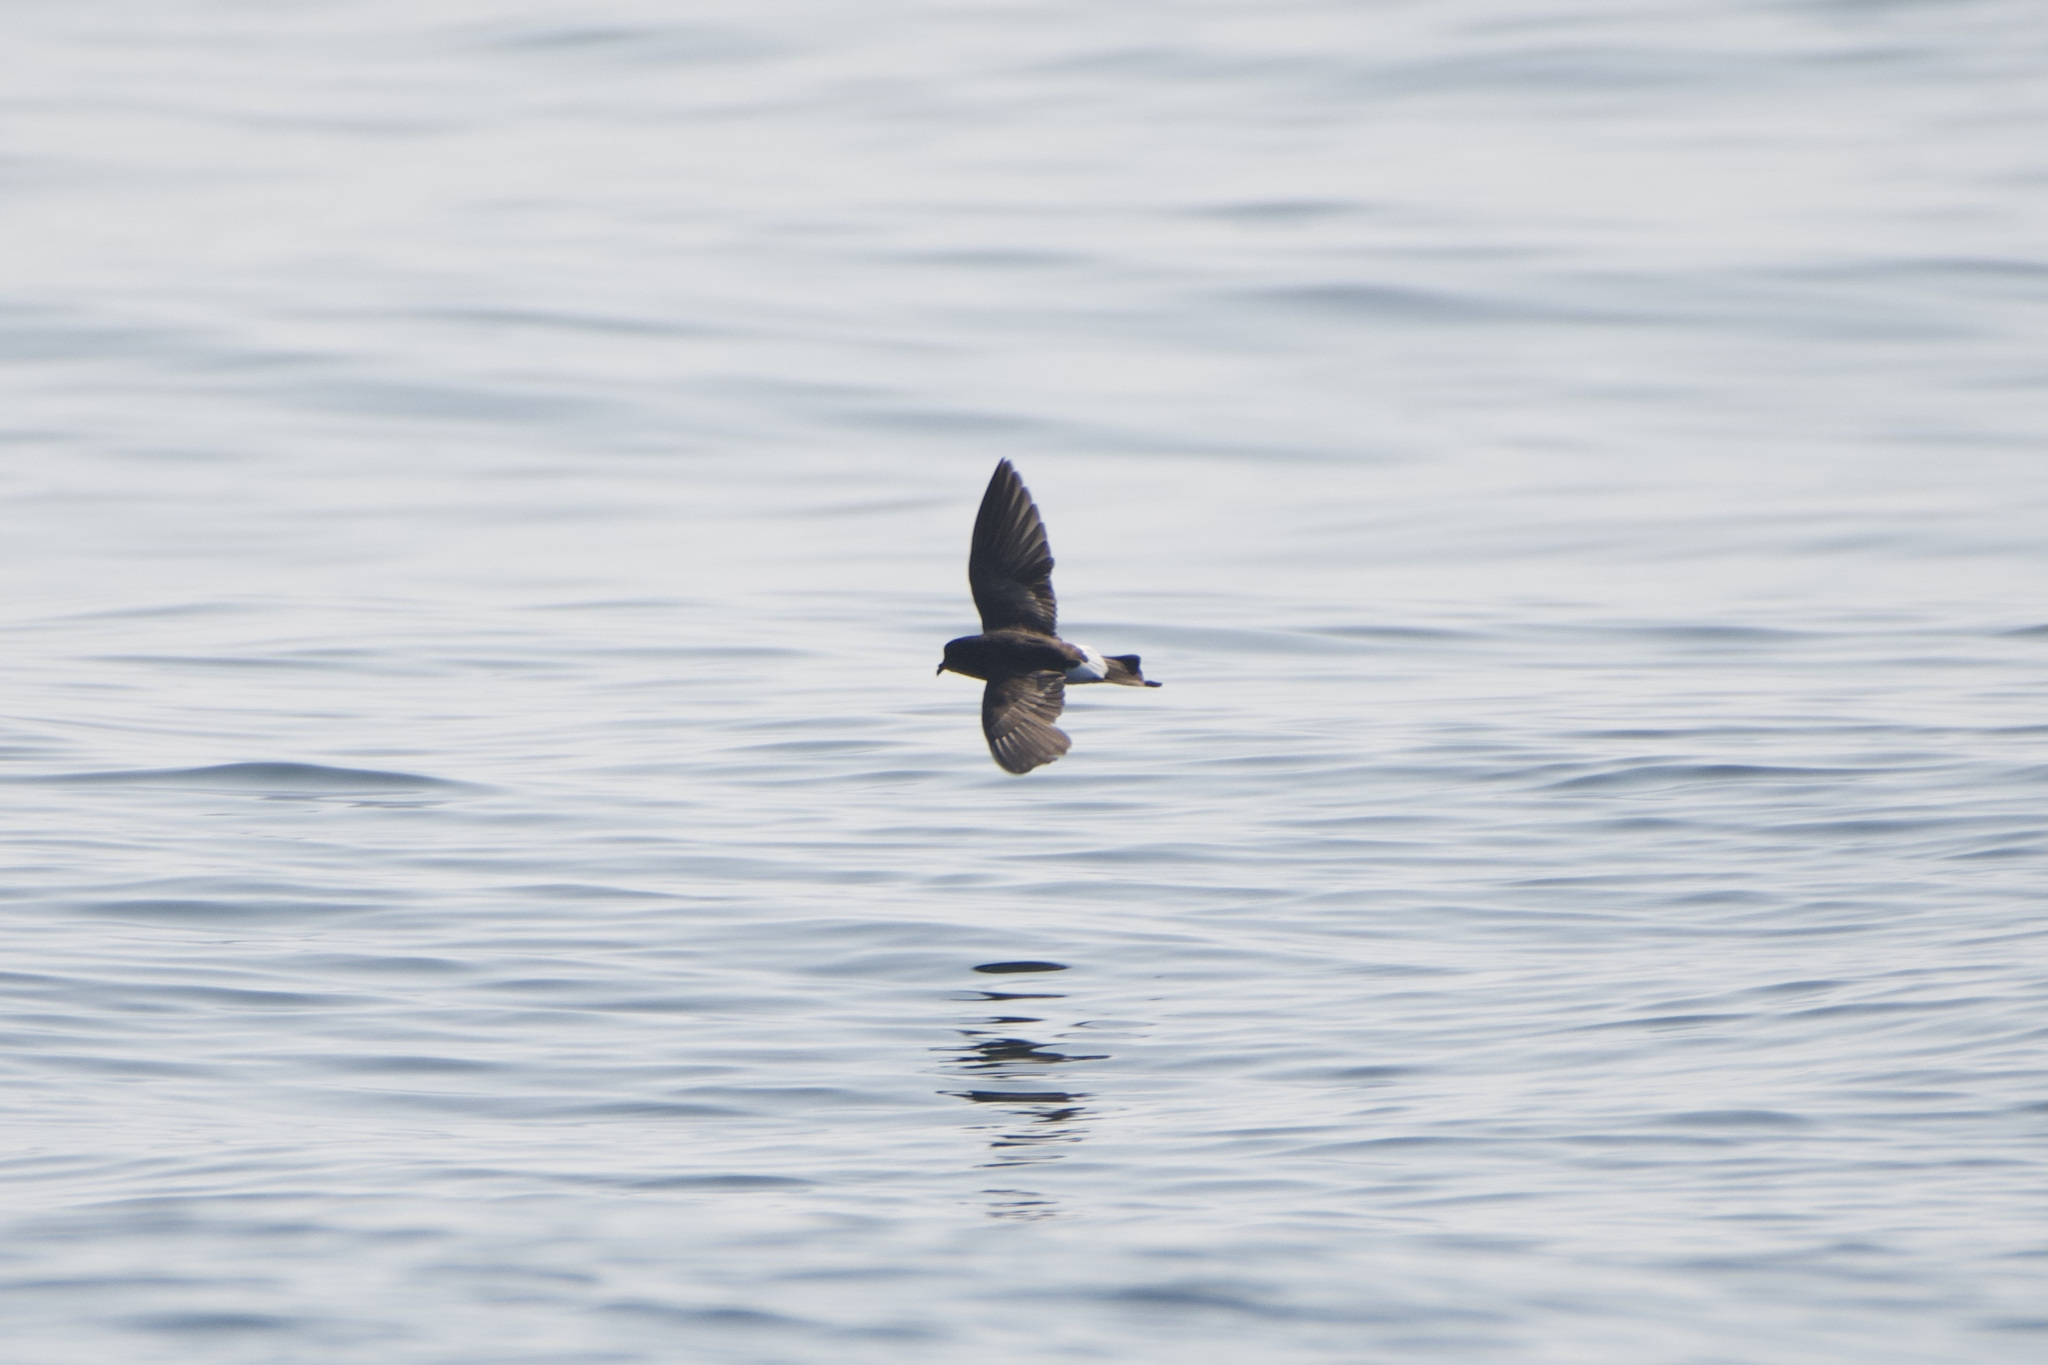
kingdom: Animalia
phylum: Chordata
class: Aves
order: Procellariiformes
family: Hydrobatidae
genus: Oceanites
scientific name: Oceanites oceanicus
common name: Wilson's storm petrel
